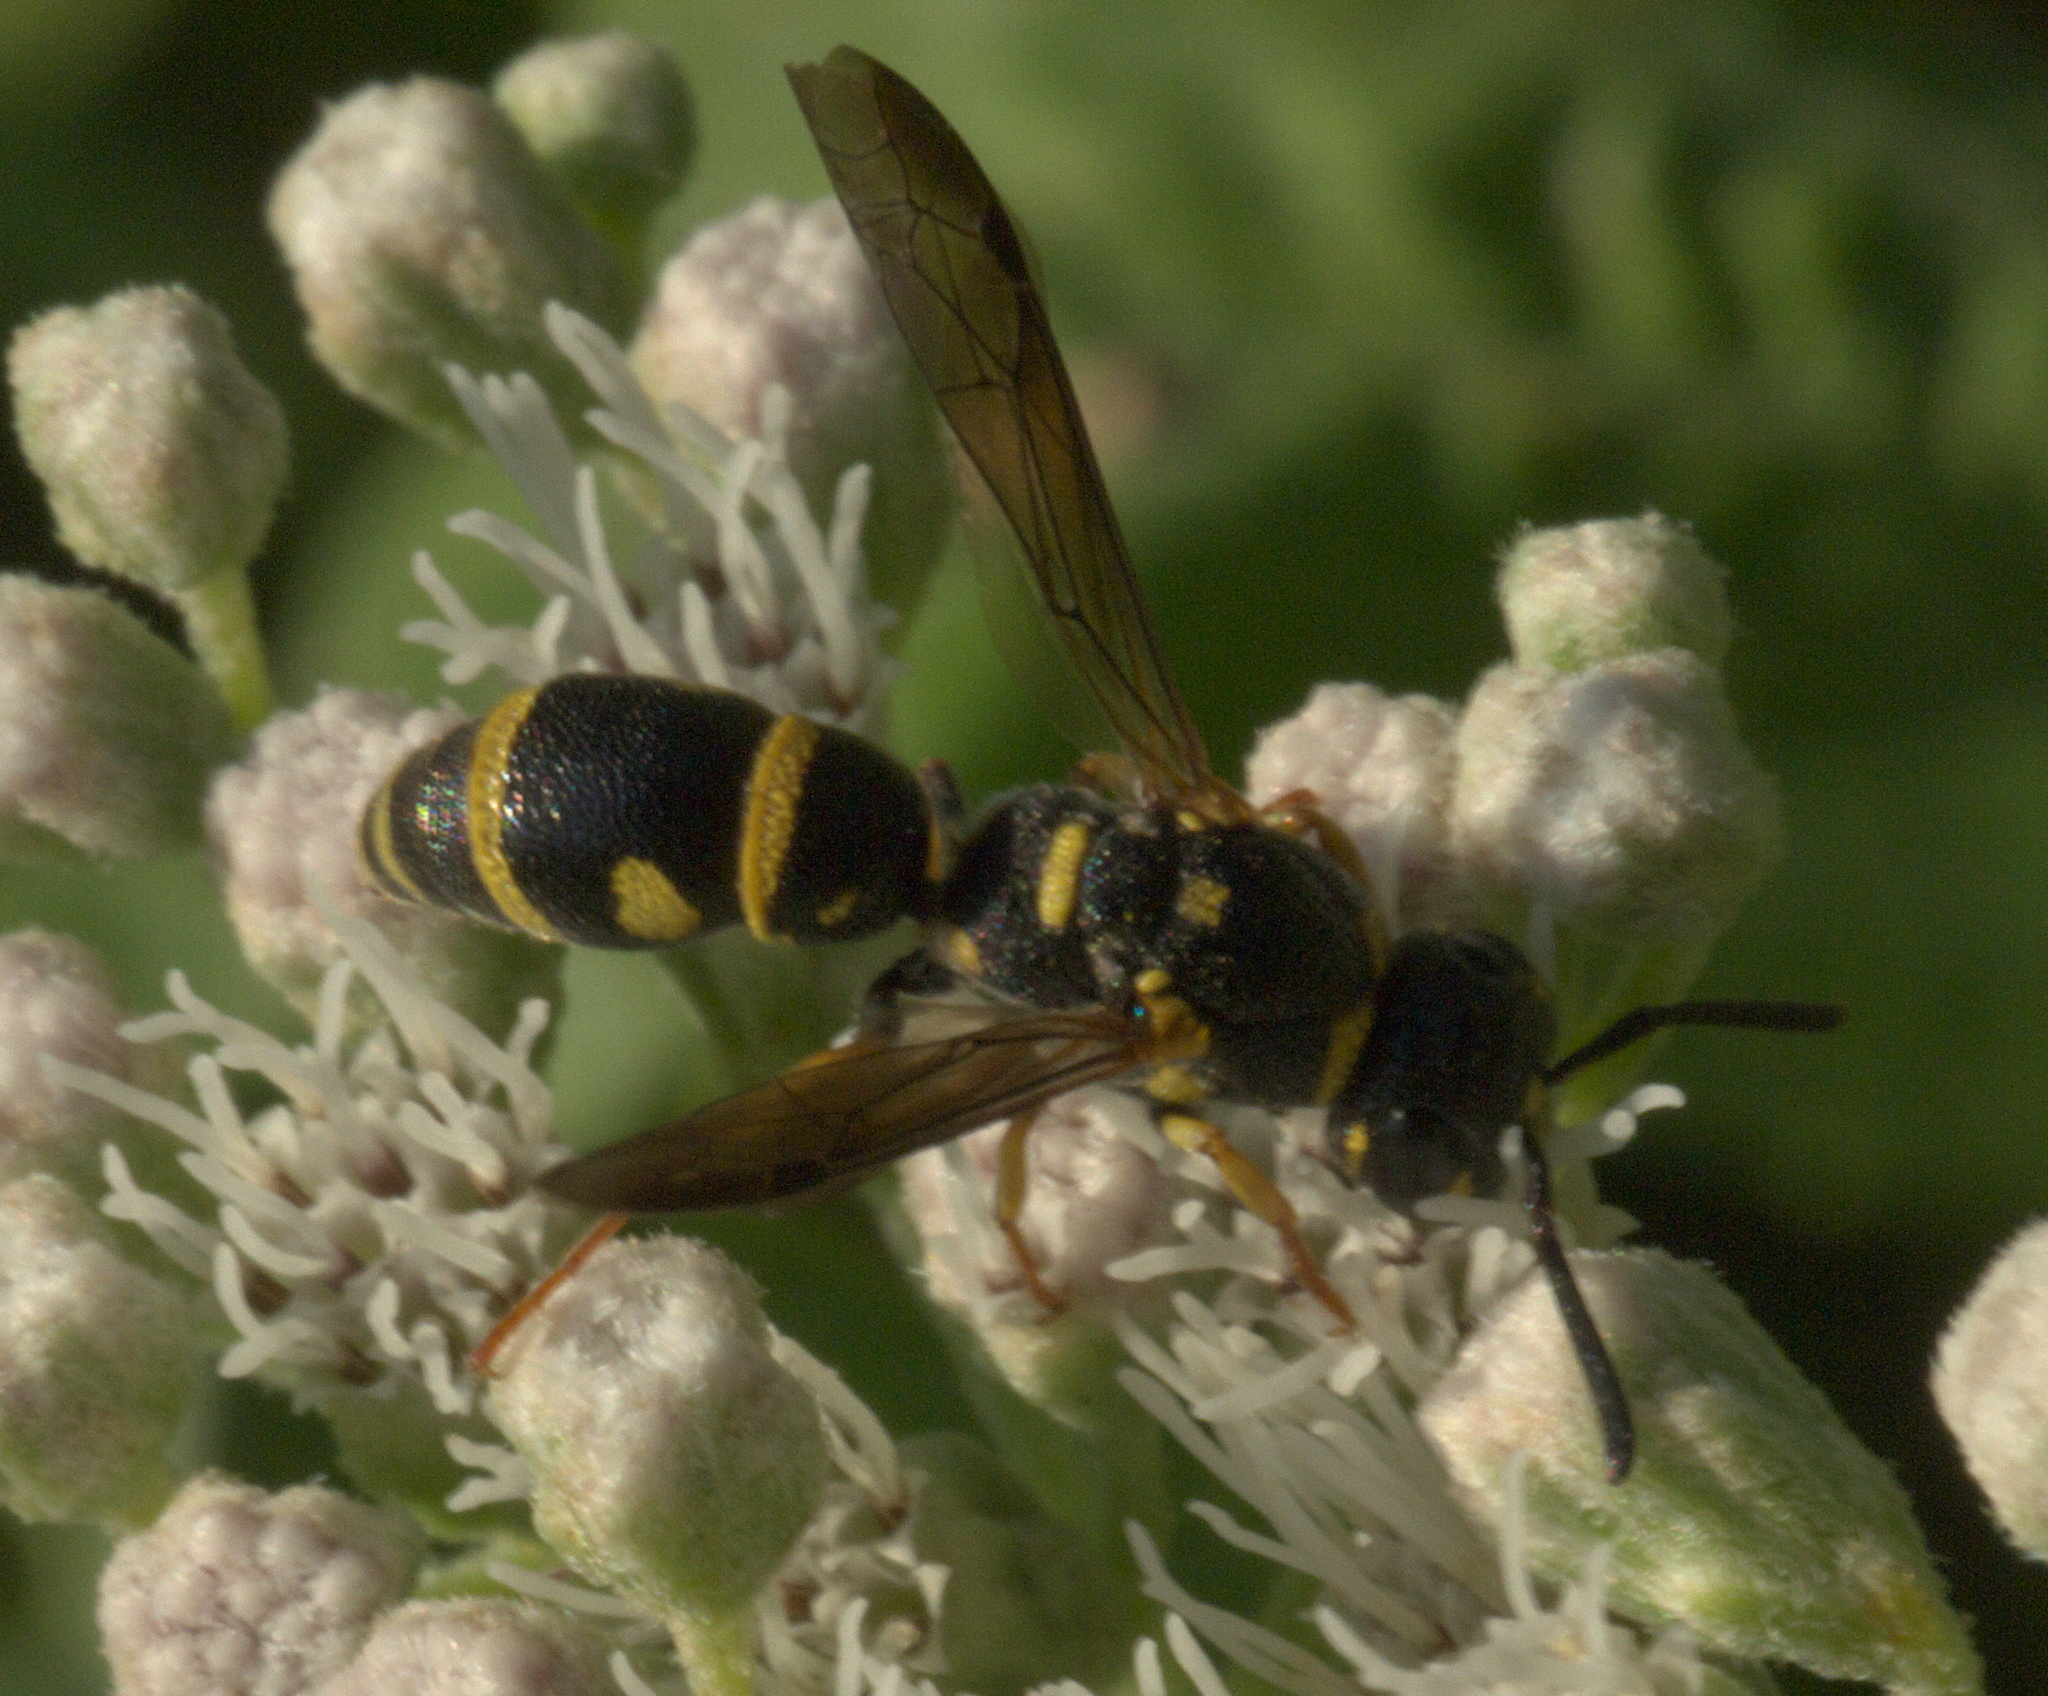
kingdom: Animalia
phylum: Arthropoda
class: Insecta
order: Hymenoptera
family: Eumenidae
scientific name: Eumenidae
